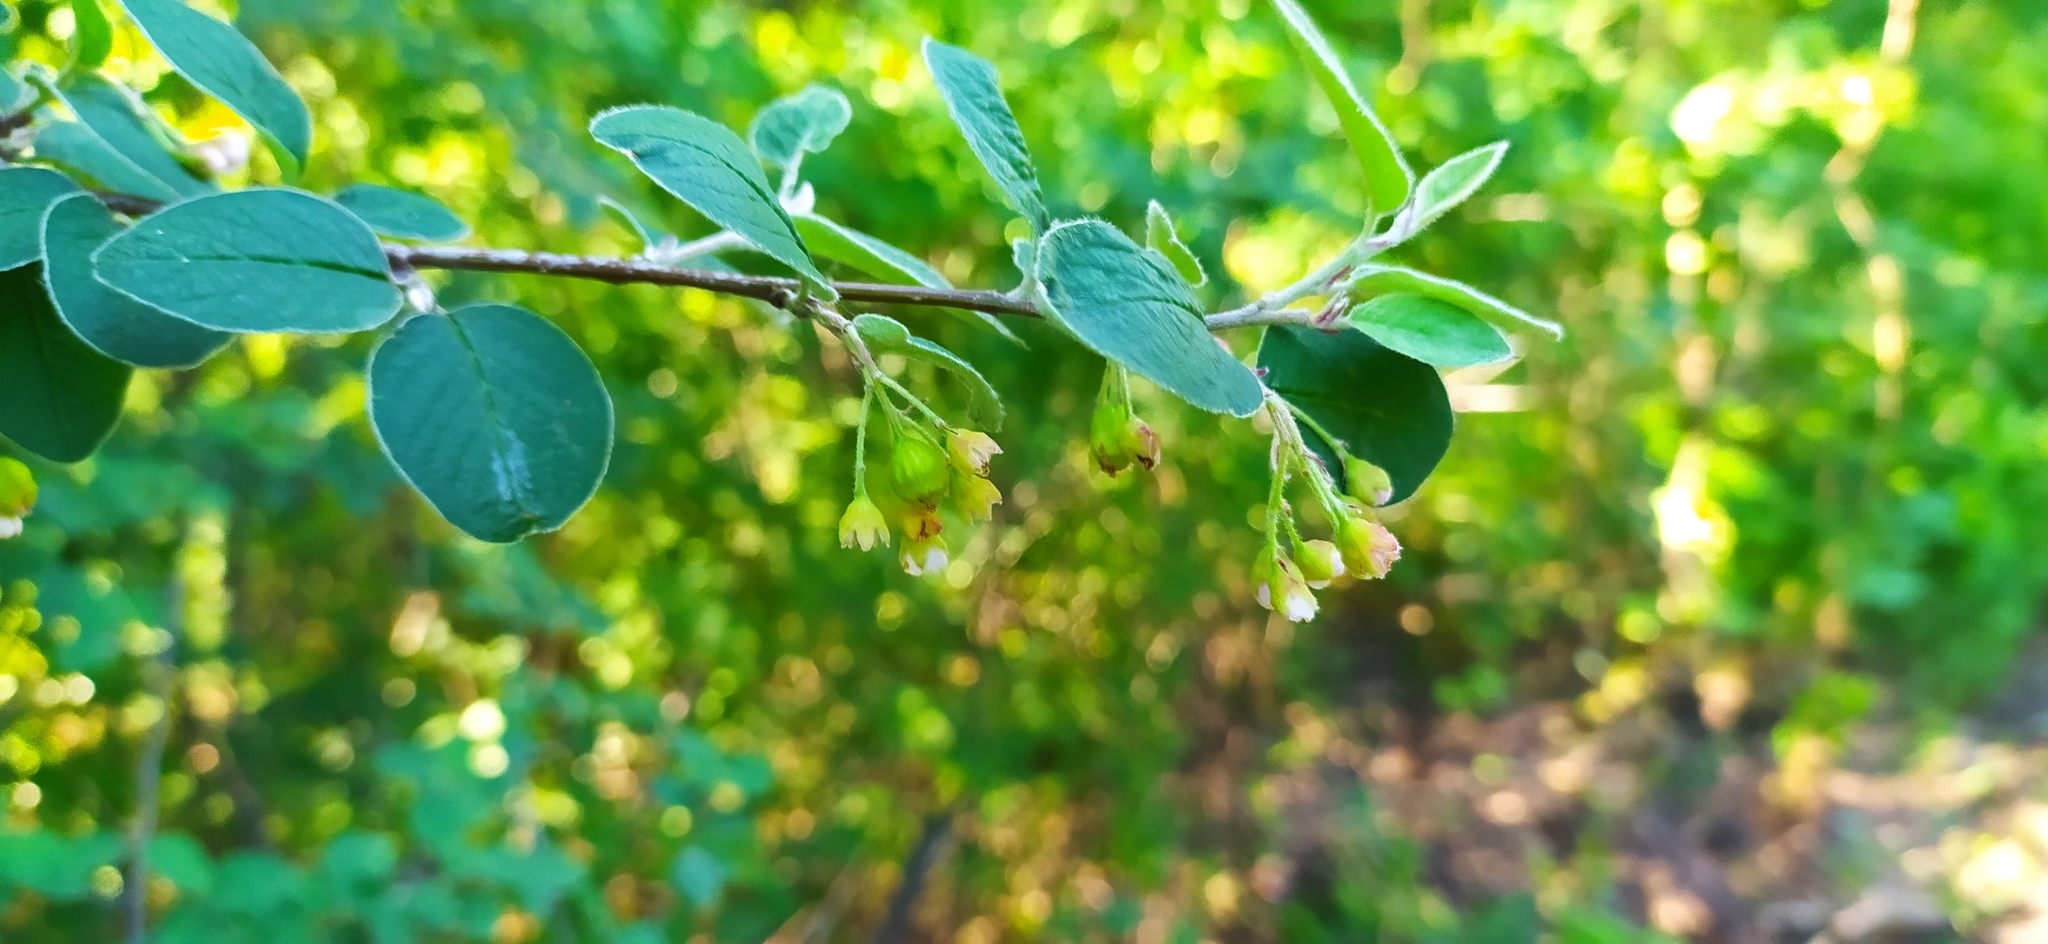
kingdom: Plantae
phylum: Tracheophyta
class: Magnoliopsida
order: Rosales
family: Rosaceae
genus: Cotoneaster
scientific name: Cotoneaster melanocarpus
